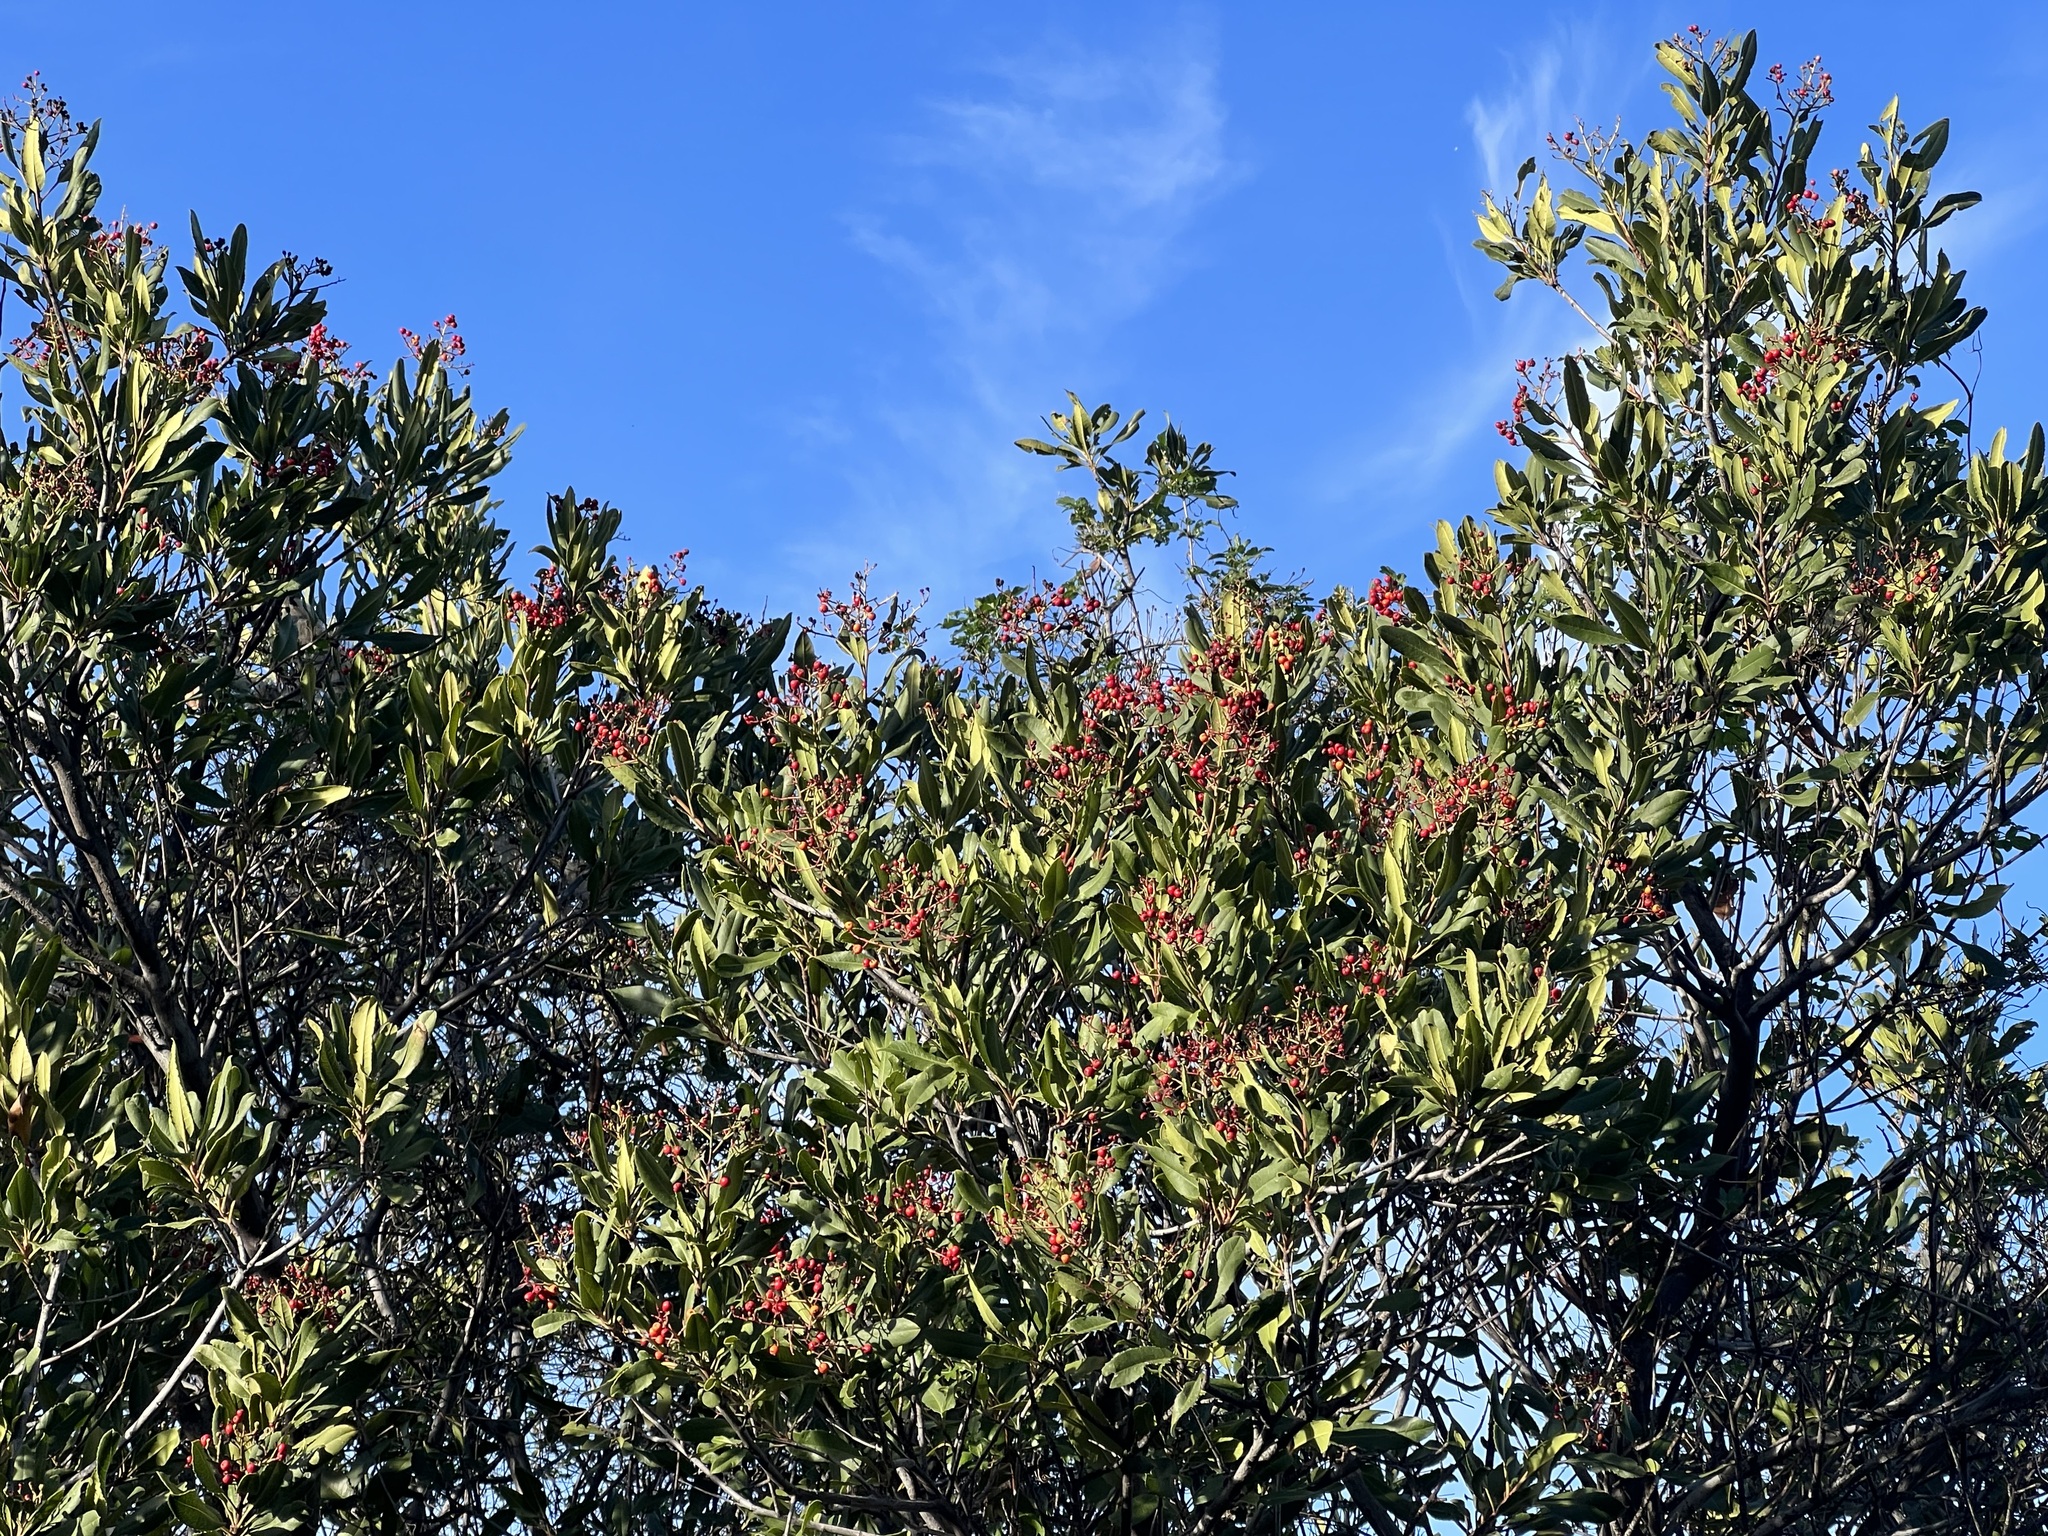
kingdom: Plantae
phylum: Tracheophyta
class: Magnoliopsida
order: Rosales
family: Rosaceae
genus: Heteromeles
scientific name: Heteromeles arbutifolia
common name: California-holly
